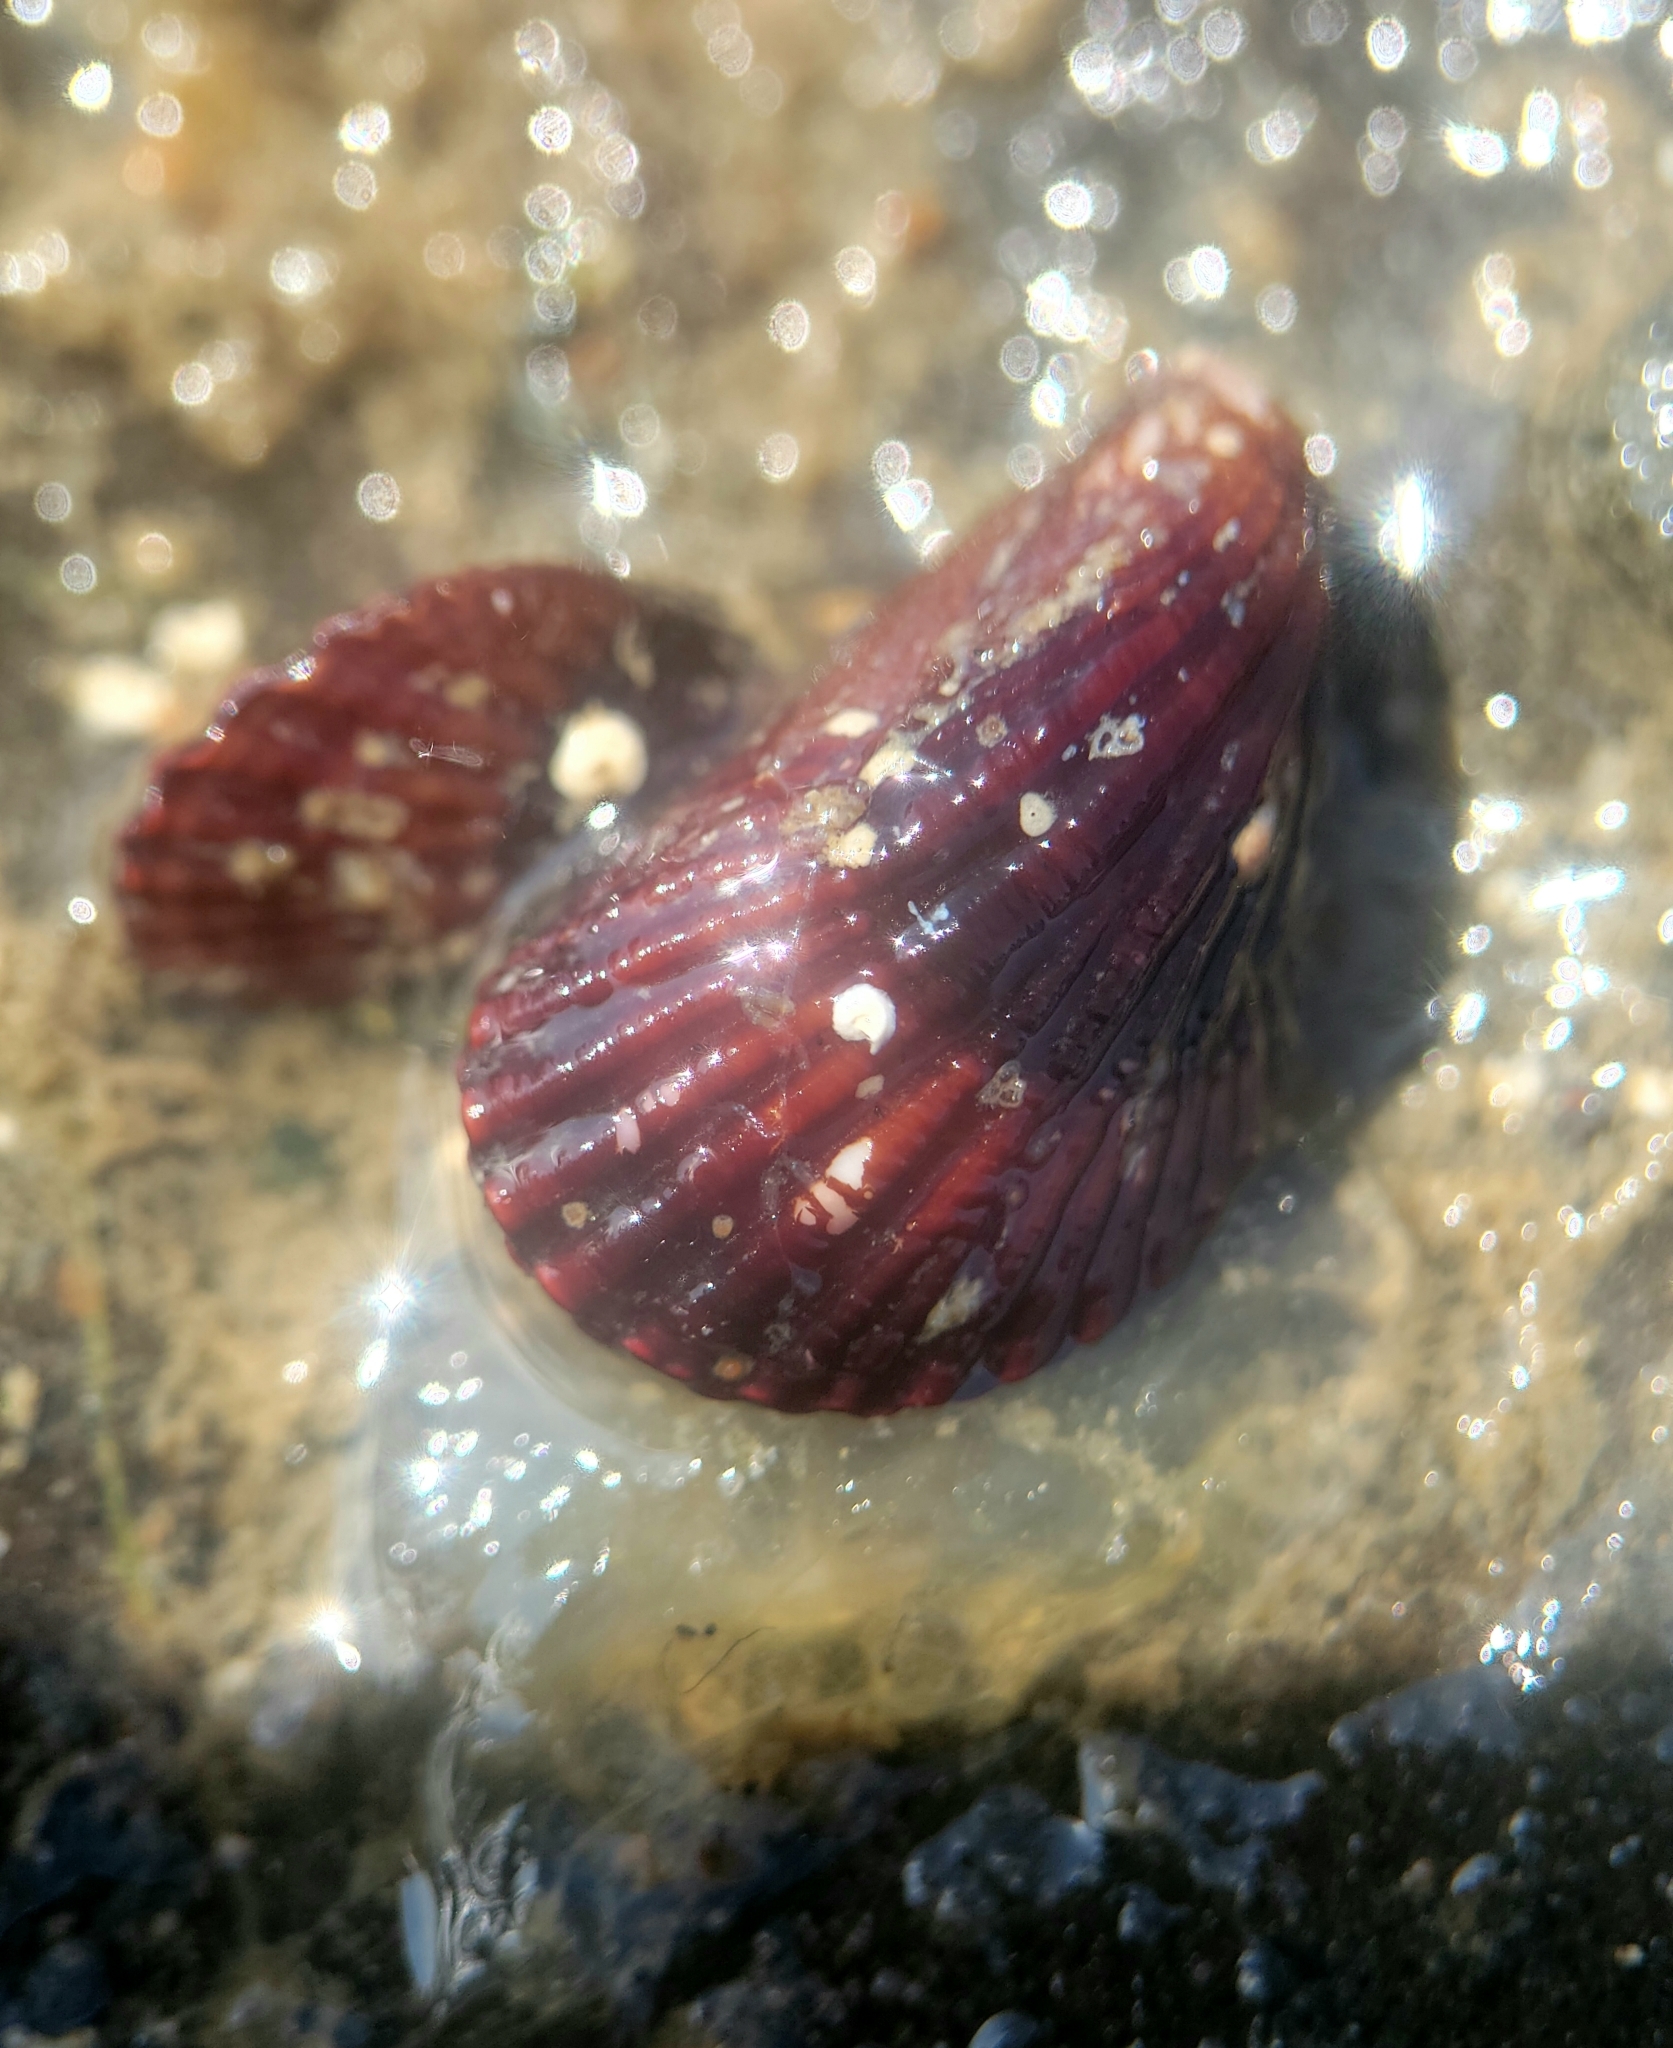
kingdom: Animalia
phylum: Mollusca
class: Bivalvia
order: Mytilida
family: Mytilidae
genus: Mytilisepta
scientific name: Mytilisepta bifurcata
